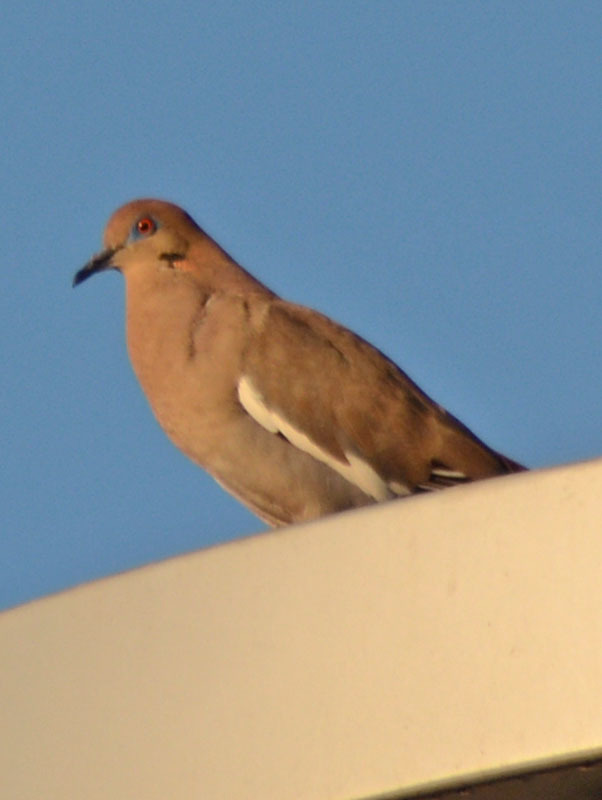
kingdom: Animalia
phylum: Chordata
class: Aves
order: Columbiformes
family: Columbidae
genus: Zenaida
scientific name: Zenaida asiatica
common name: White-winged dove
